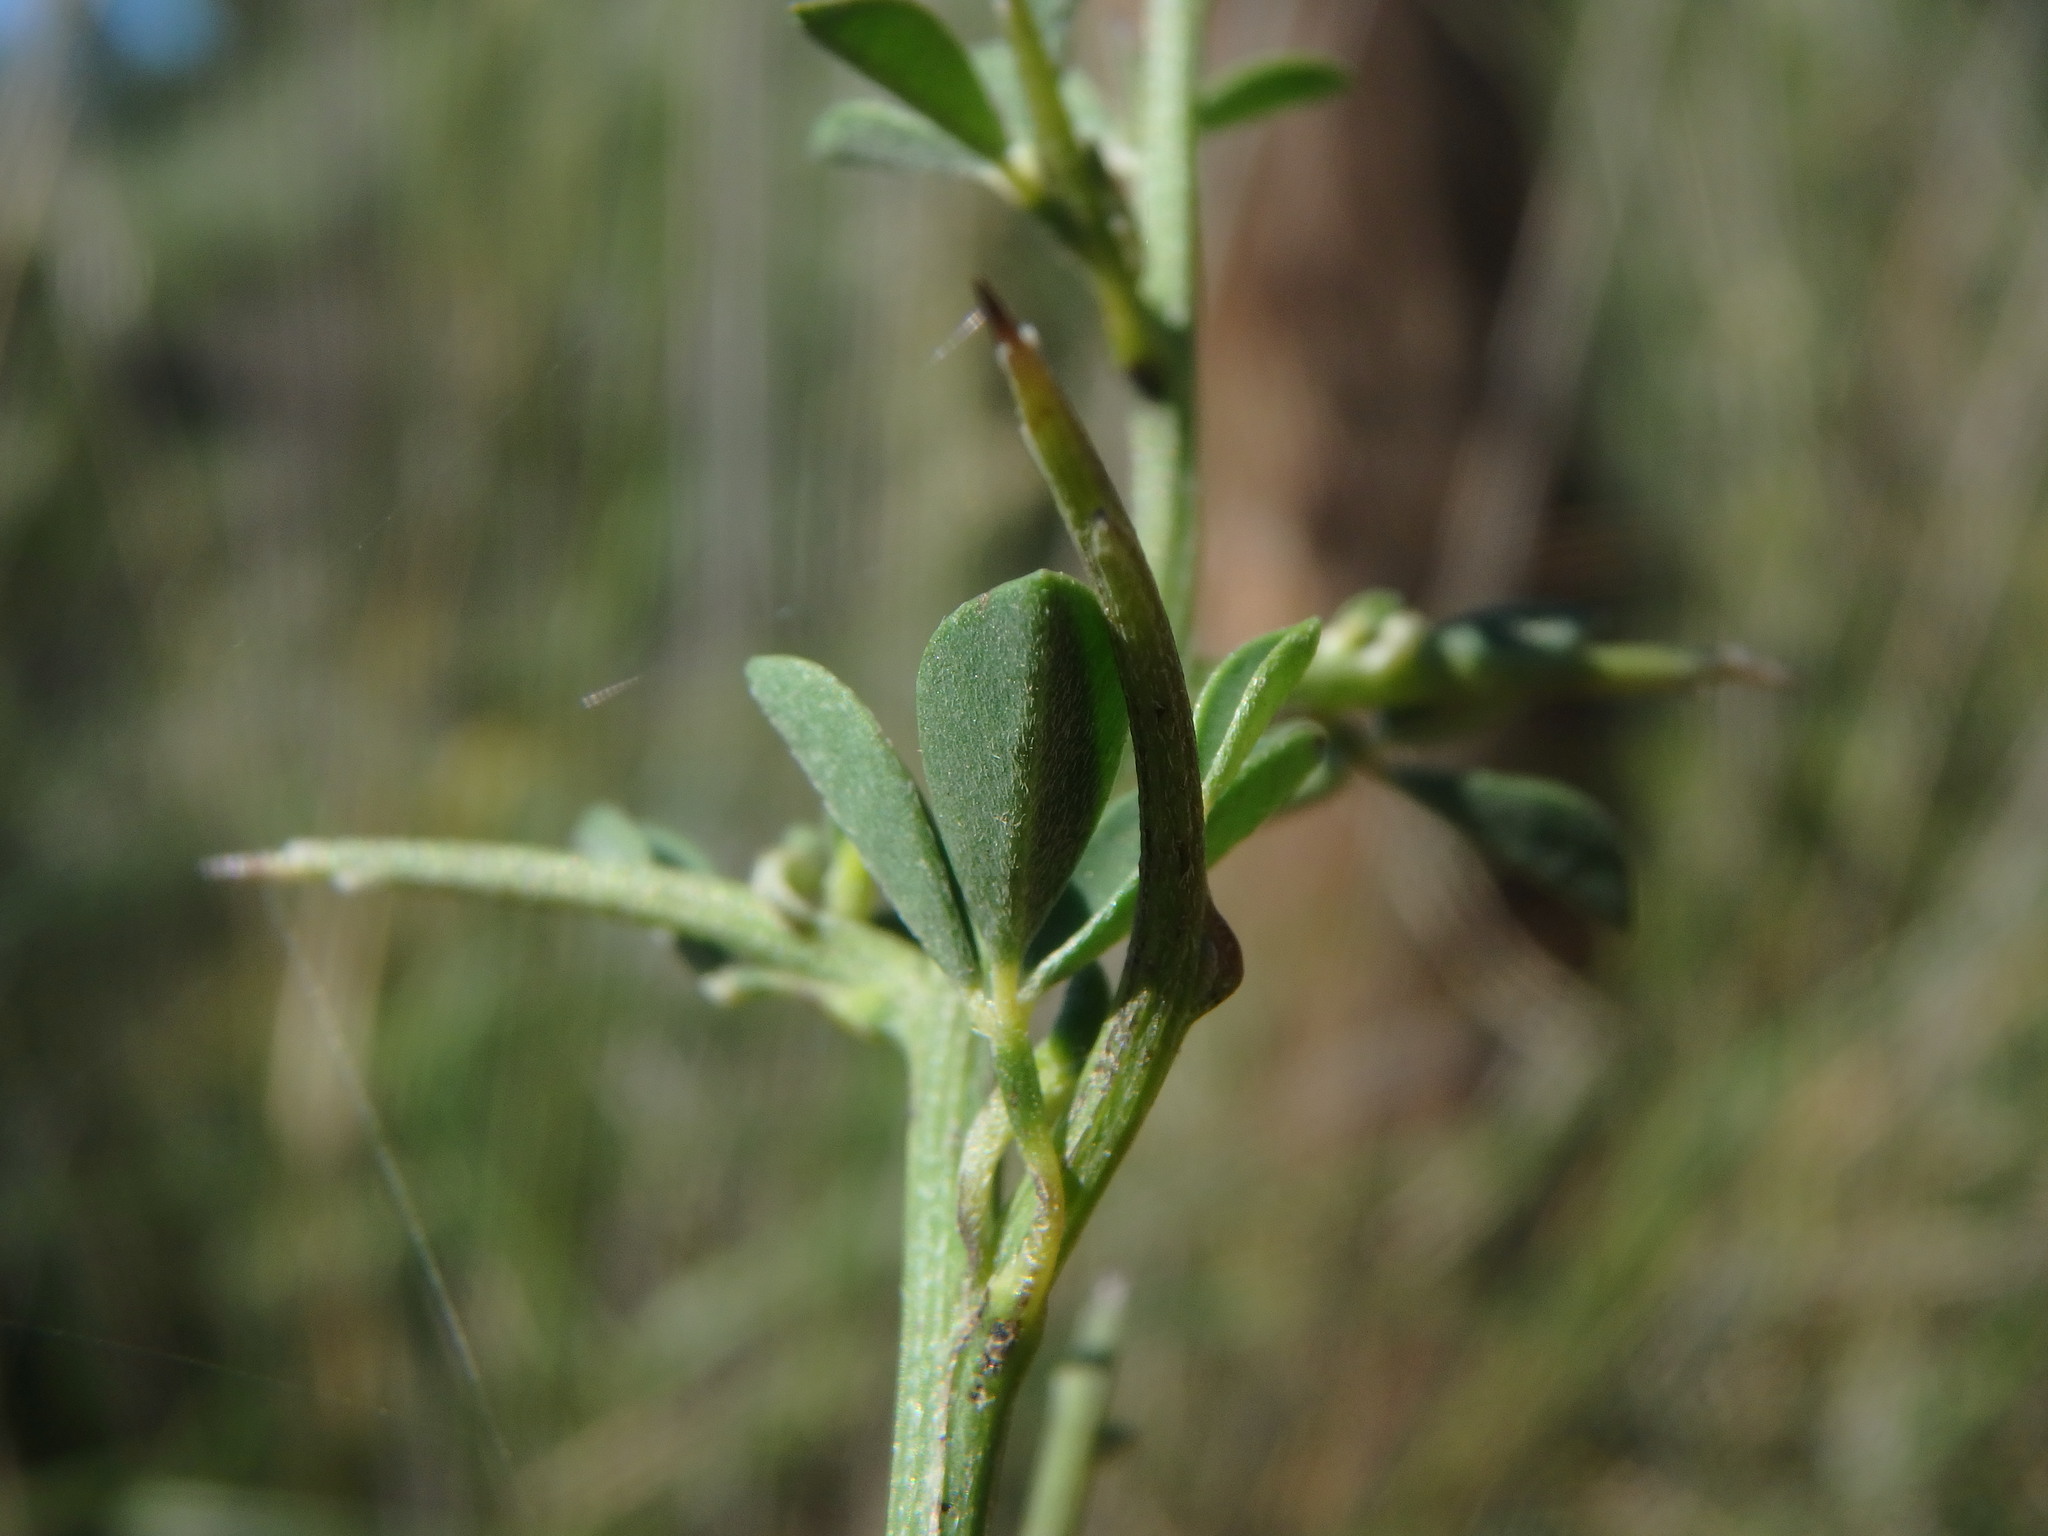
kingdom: Plantae
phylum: Tracheophyta
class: Magnoliopsida
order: Fabales
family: Fabaceae
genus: Calicotome
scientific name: Calicotome spinosa
